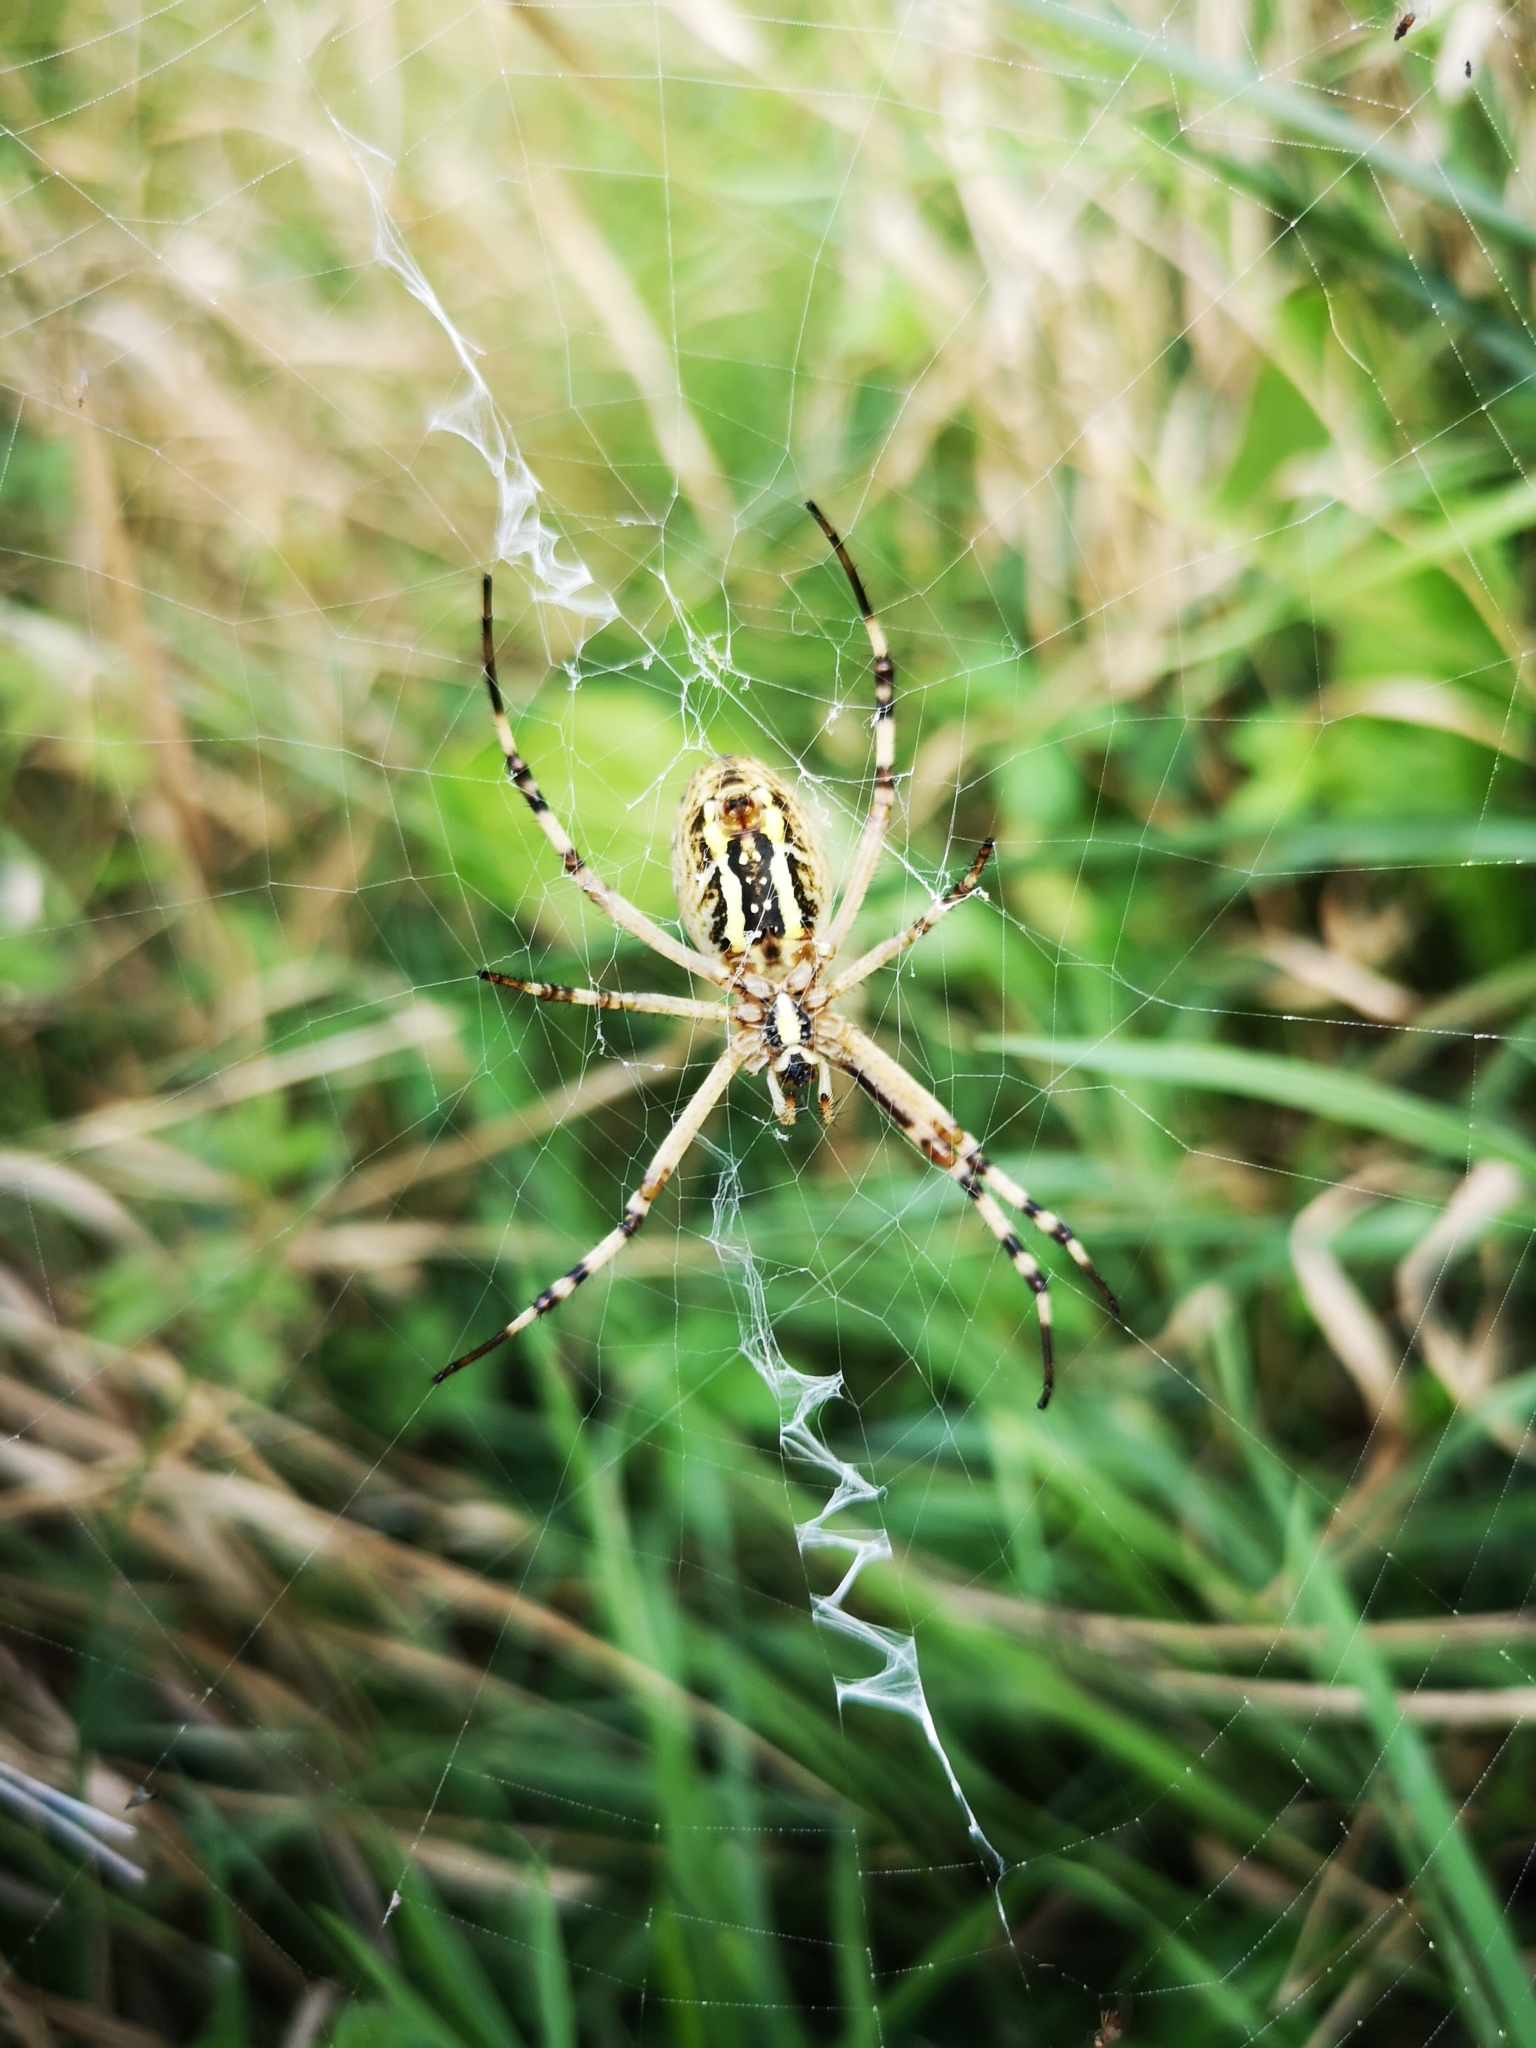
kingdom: Animalia
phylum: Arthropoda
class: Arachnida
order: Araneae
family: Araneidae
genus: Argiope
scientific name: Argiope bruennichi
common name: Wasp spider
